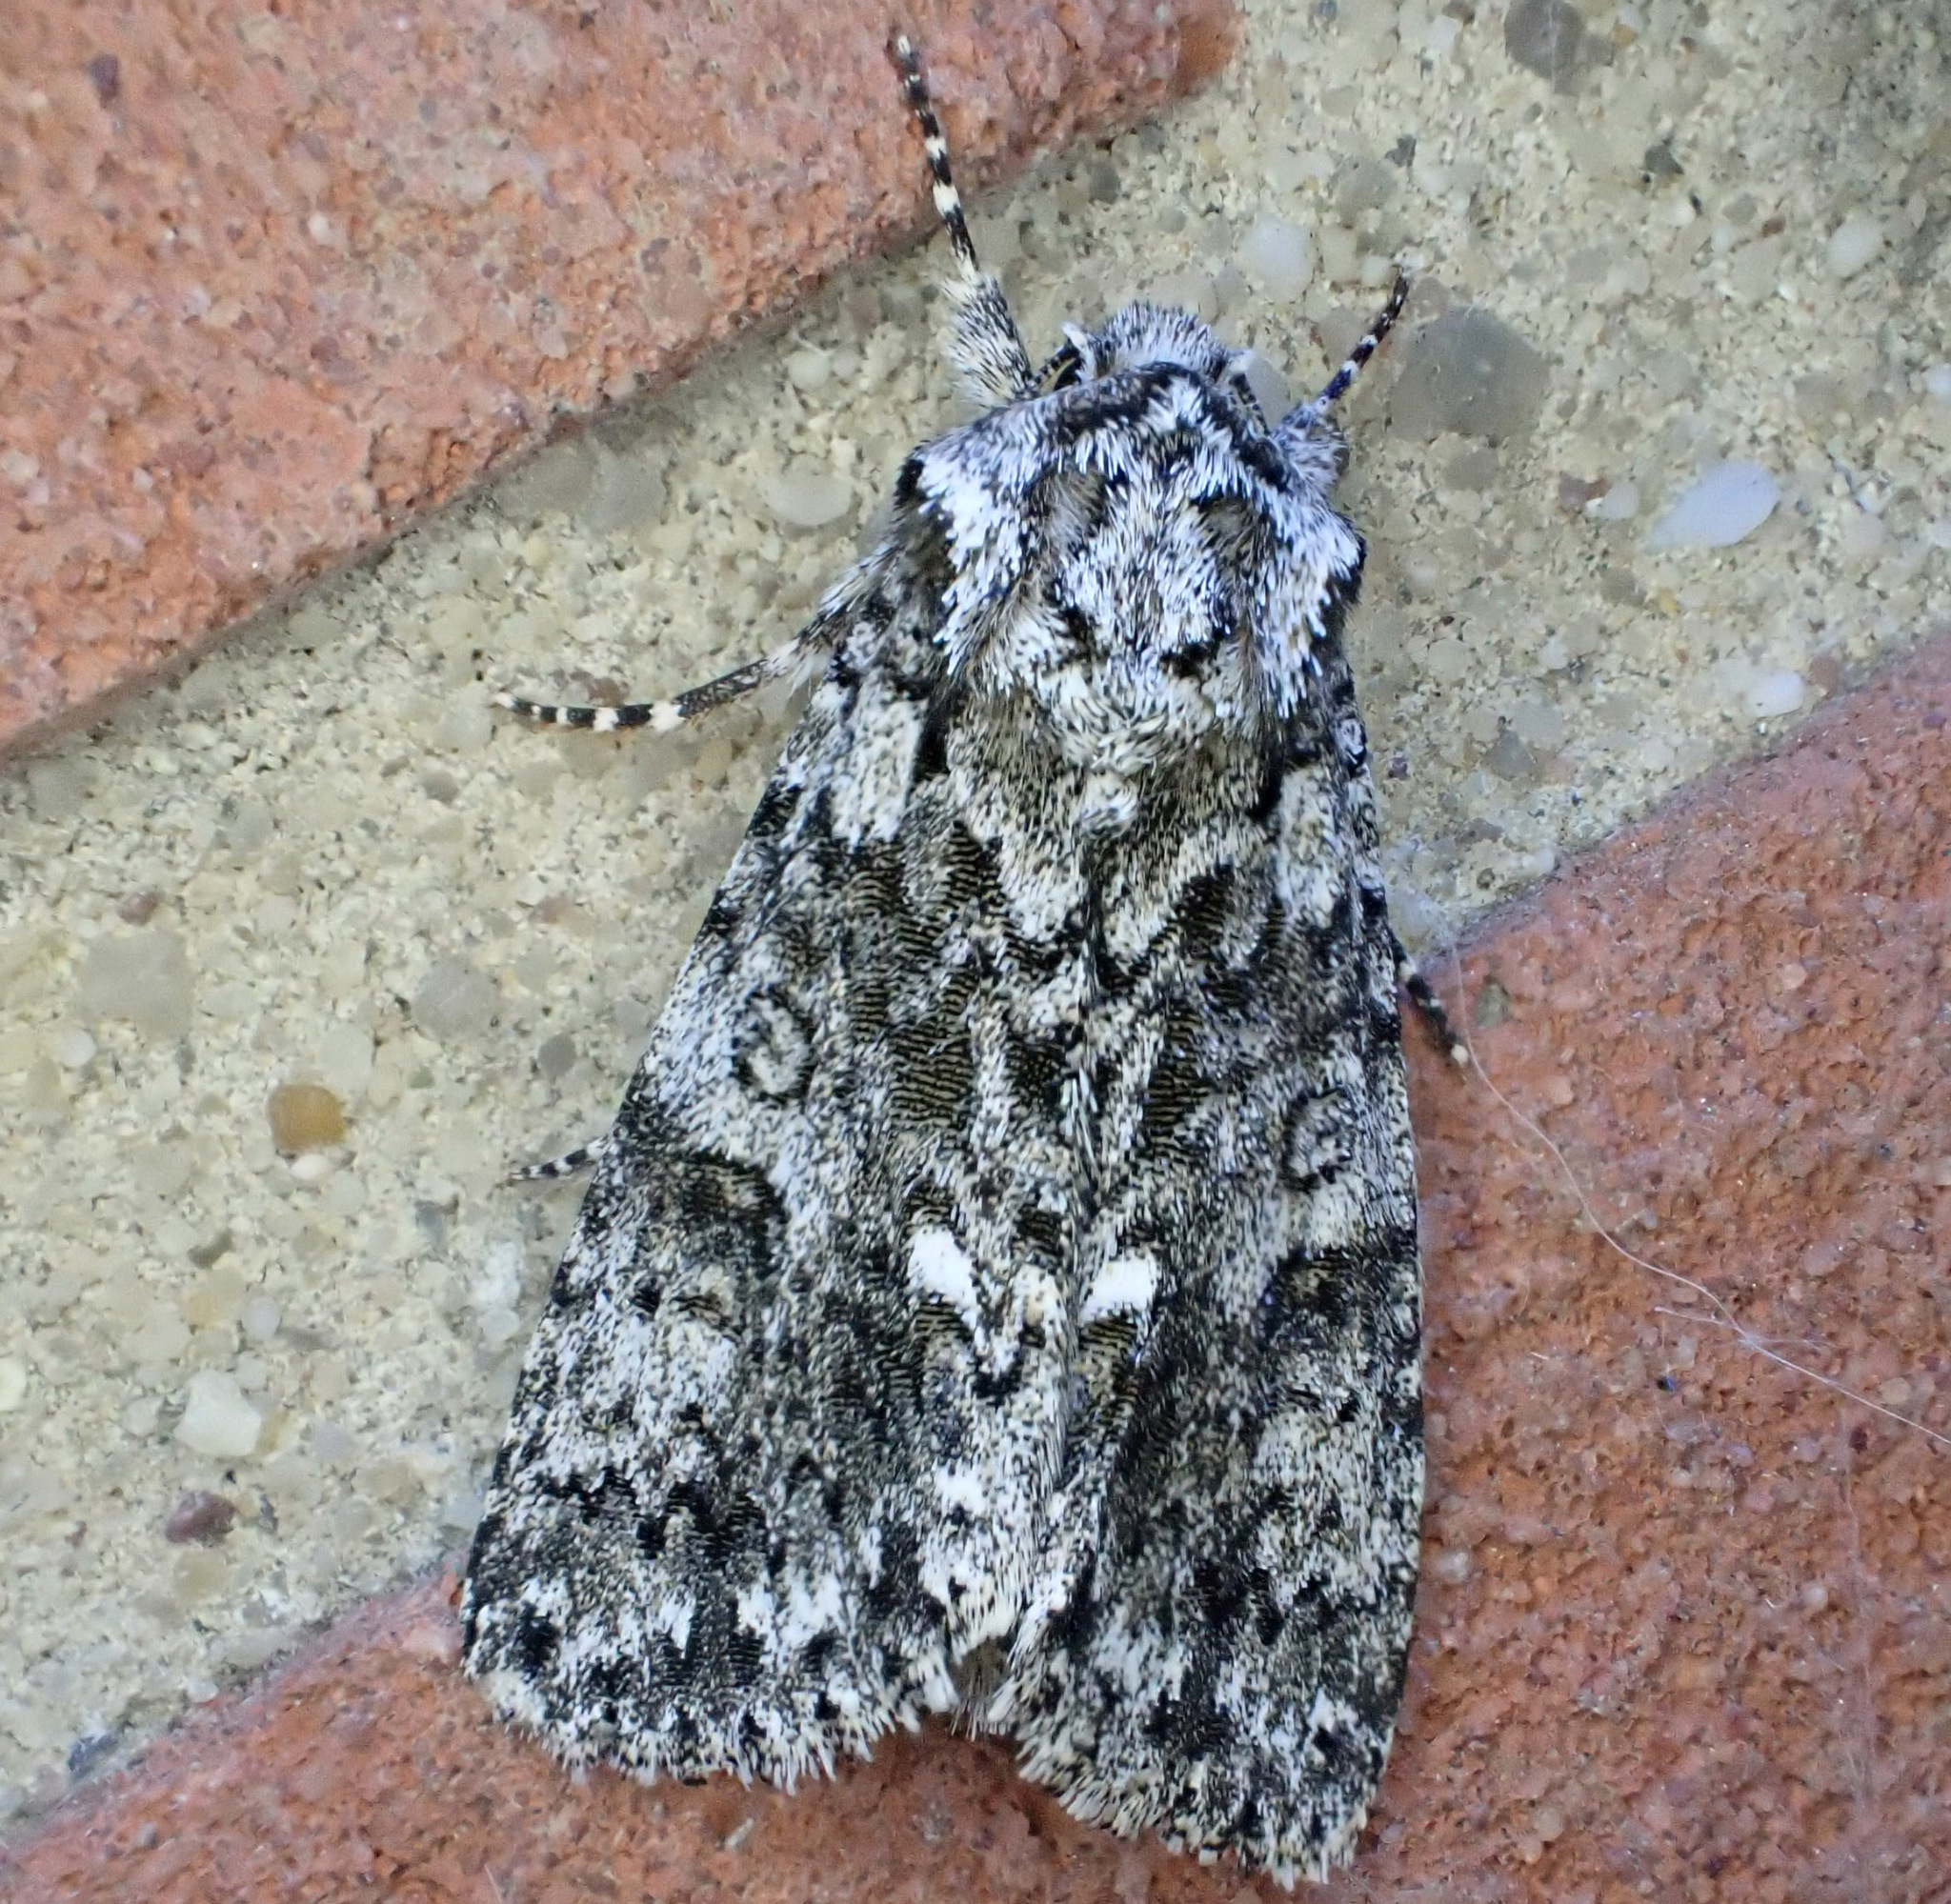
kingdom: Animalia
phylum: Arthropoda
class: Insecta
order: Lepidoptera
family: Noctuidae
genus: Acronicta
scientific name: Acronicta rumicis
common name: Knot grass
